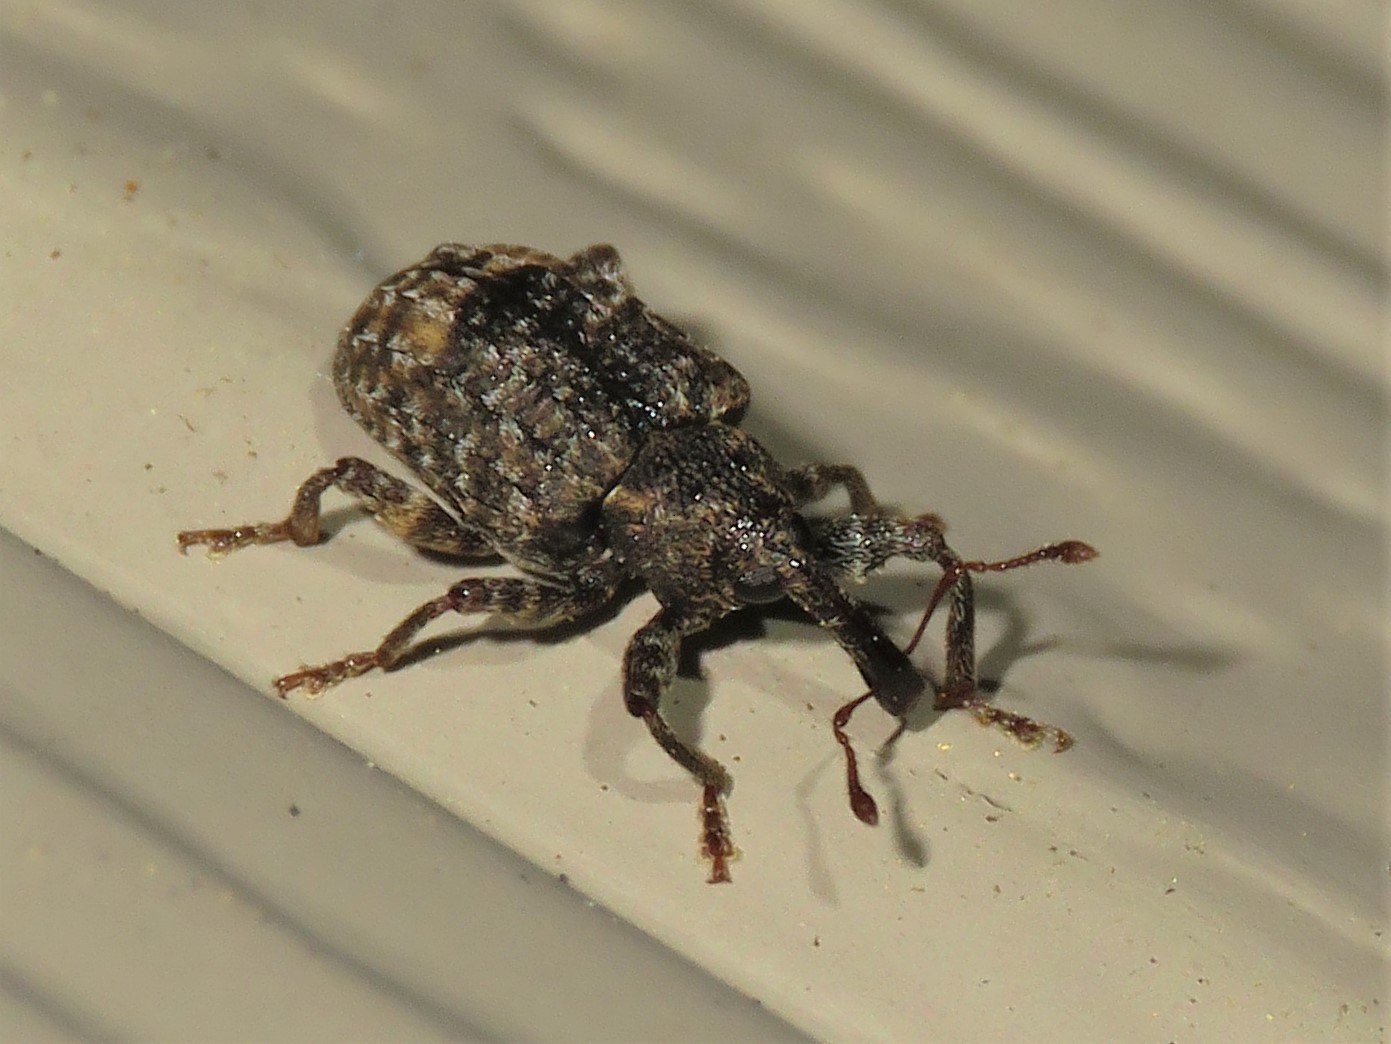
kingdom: Animalia
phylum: Arthropoda
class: Insecta
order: Coleoptera
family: Curculionidae
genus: Conotrachelus
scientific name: Conotrachelus elegans
